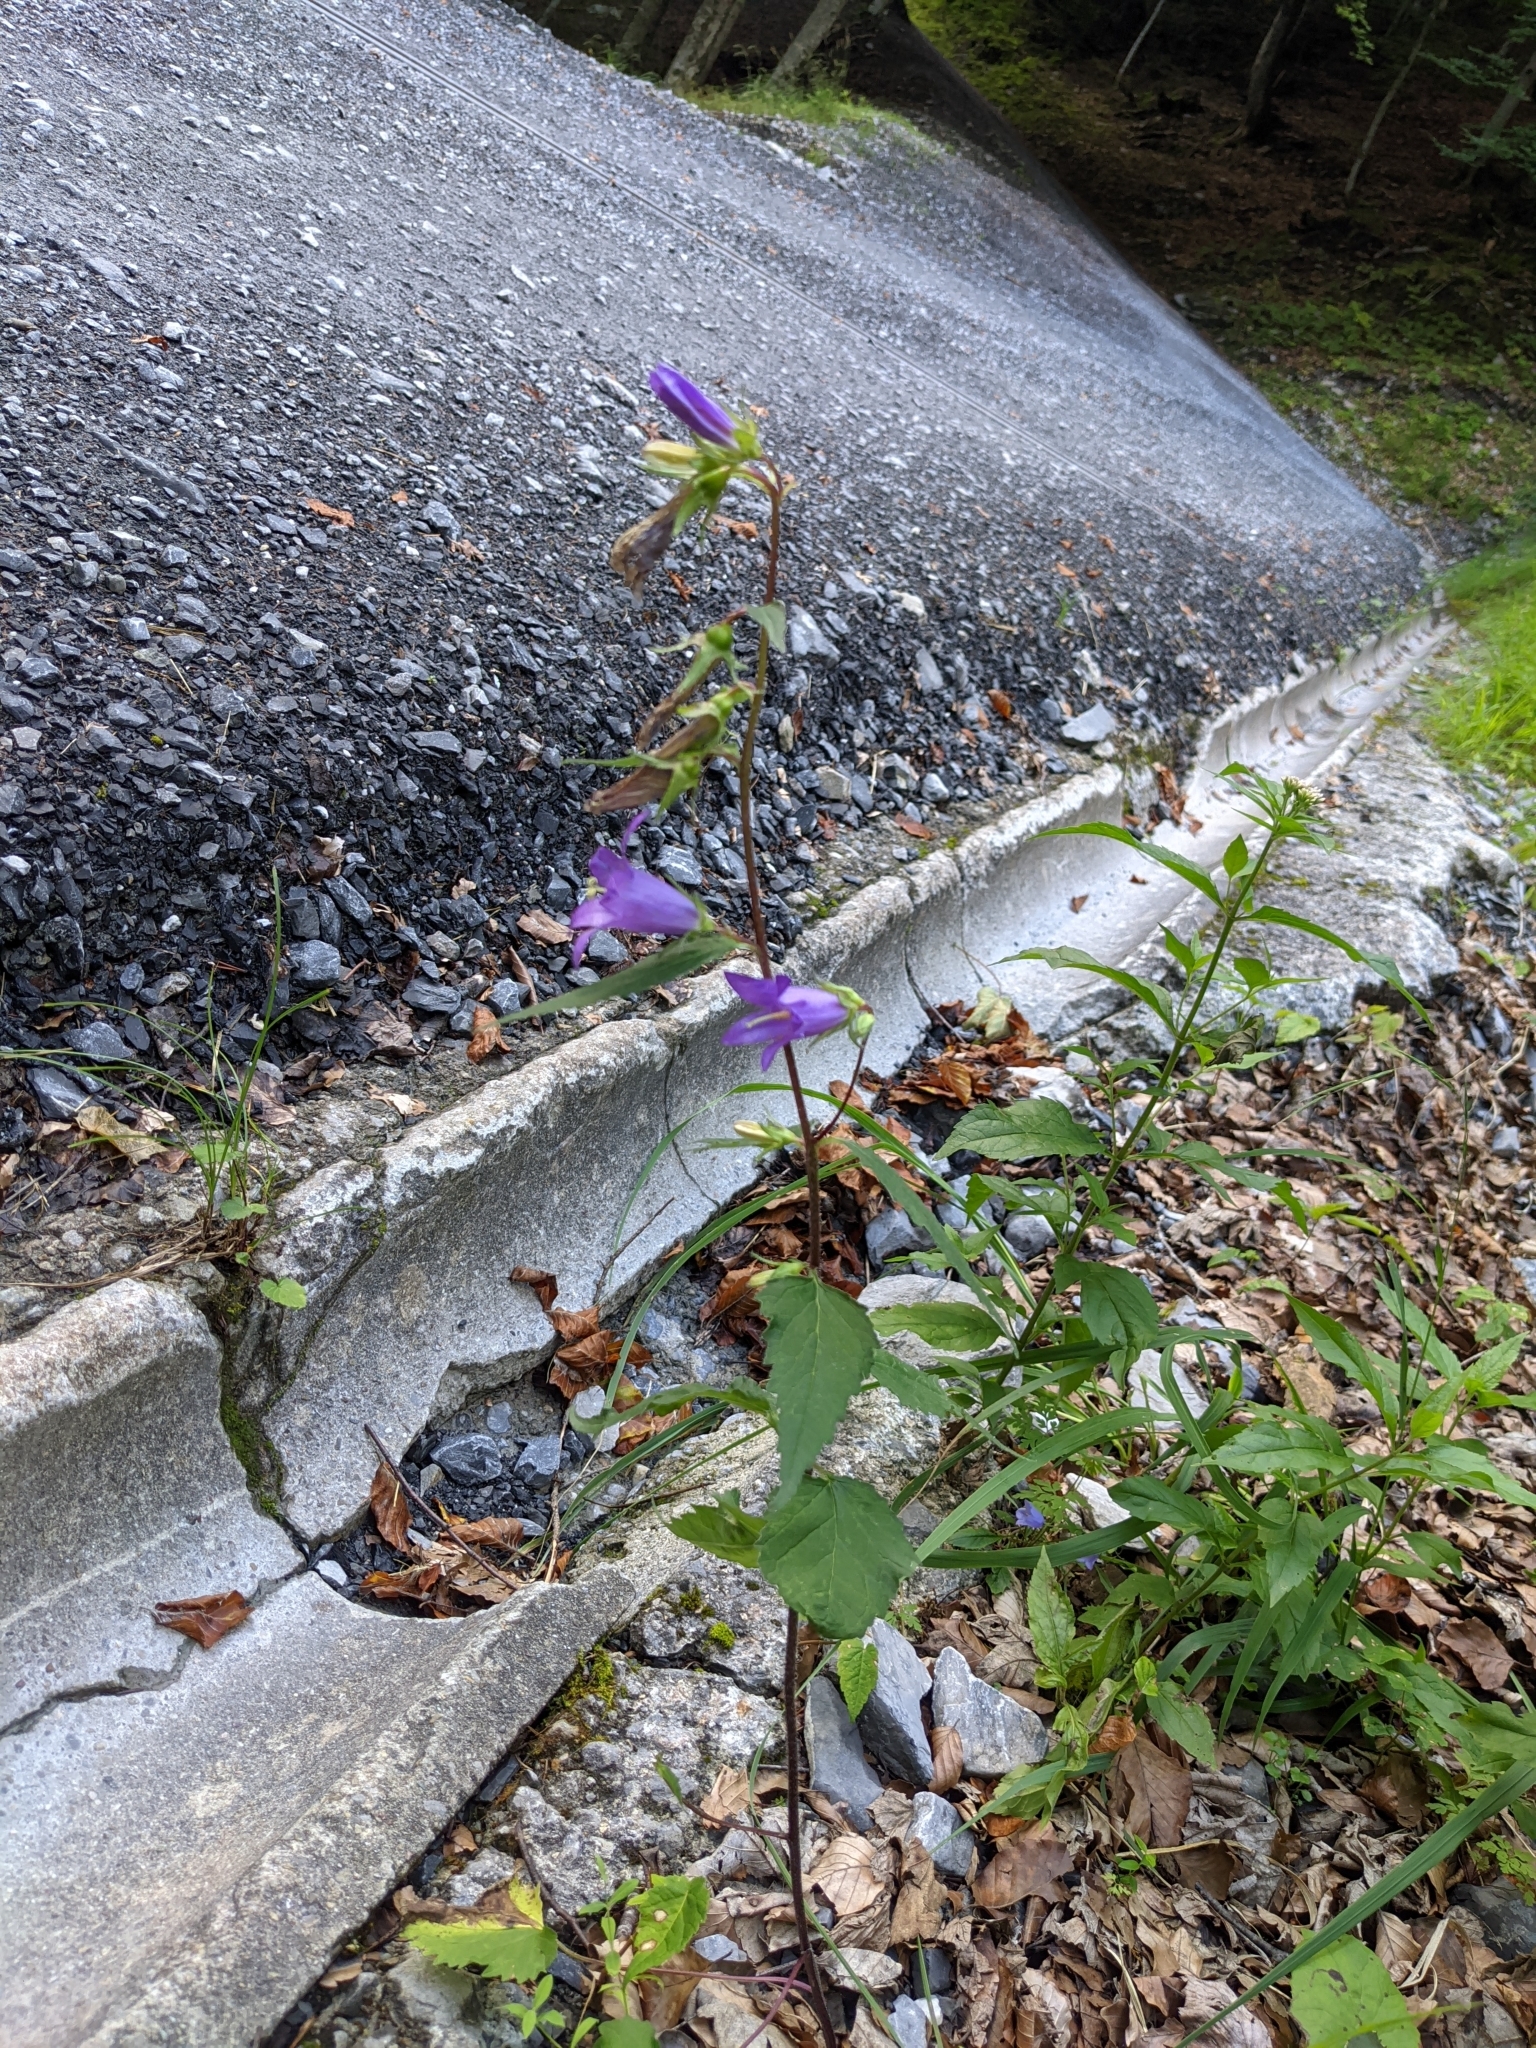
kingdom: Plantae
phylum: Tracheophyta
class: Magnoliopsida
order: Asterales
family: Campanulaceae
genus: Campanula
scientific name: Campanula trachelium
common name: Nettle-leaved bellflower
